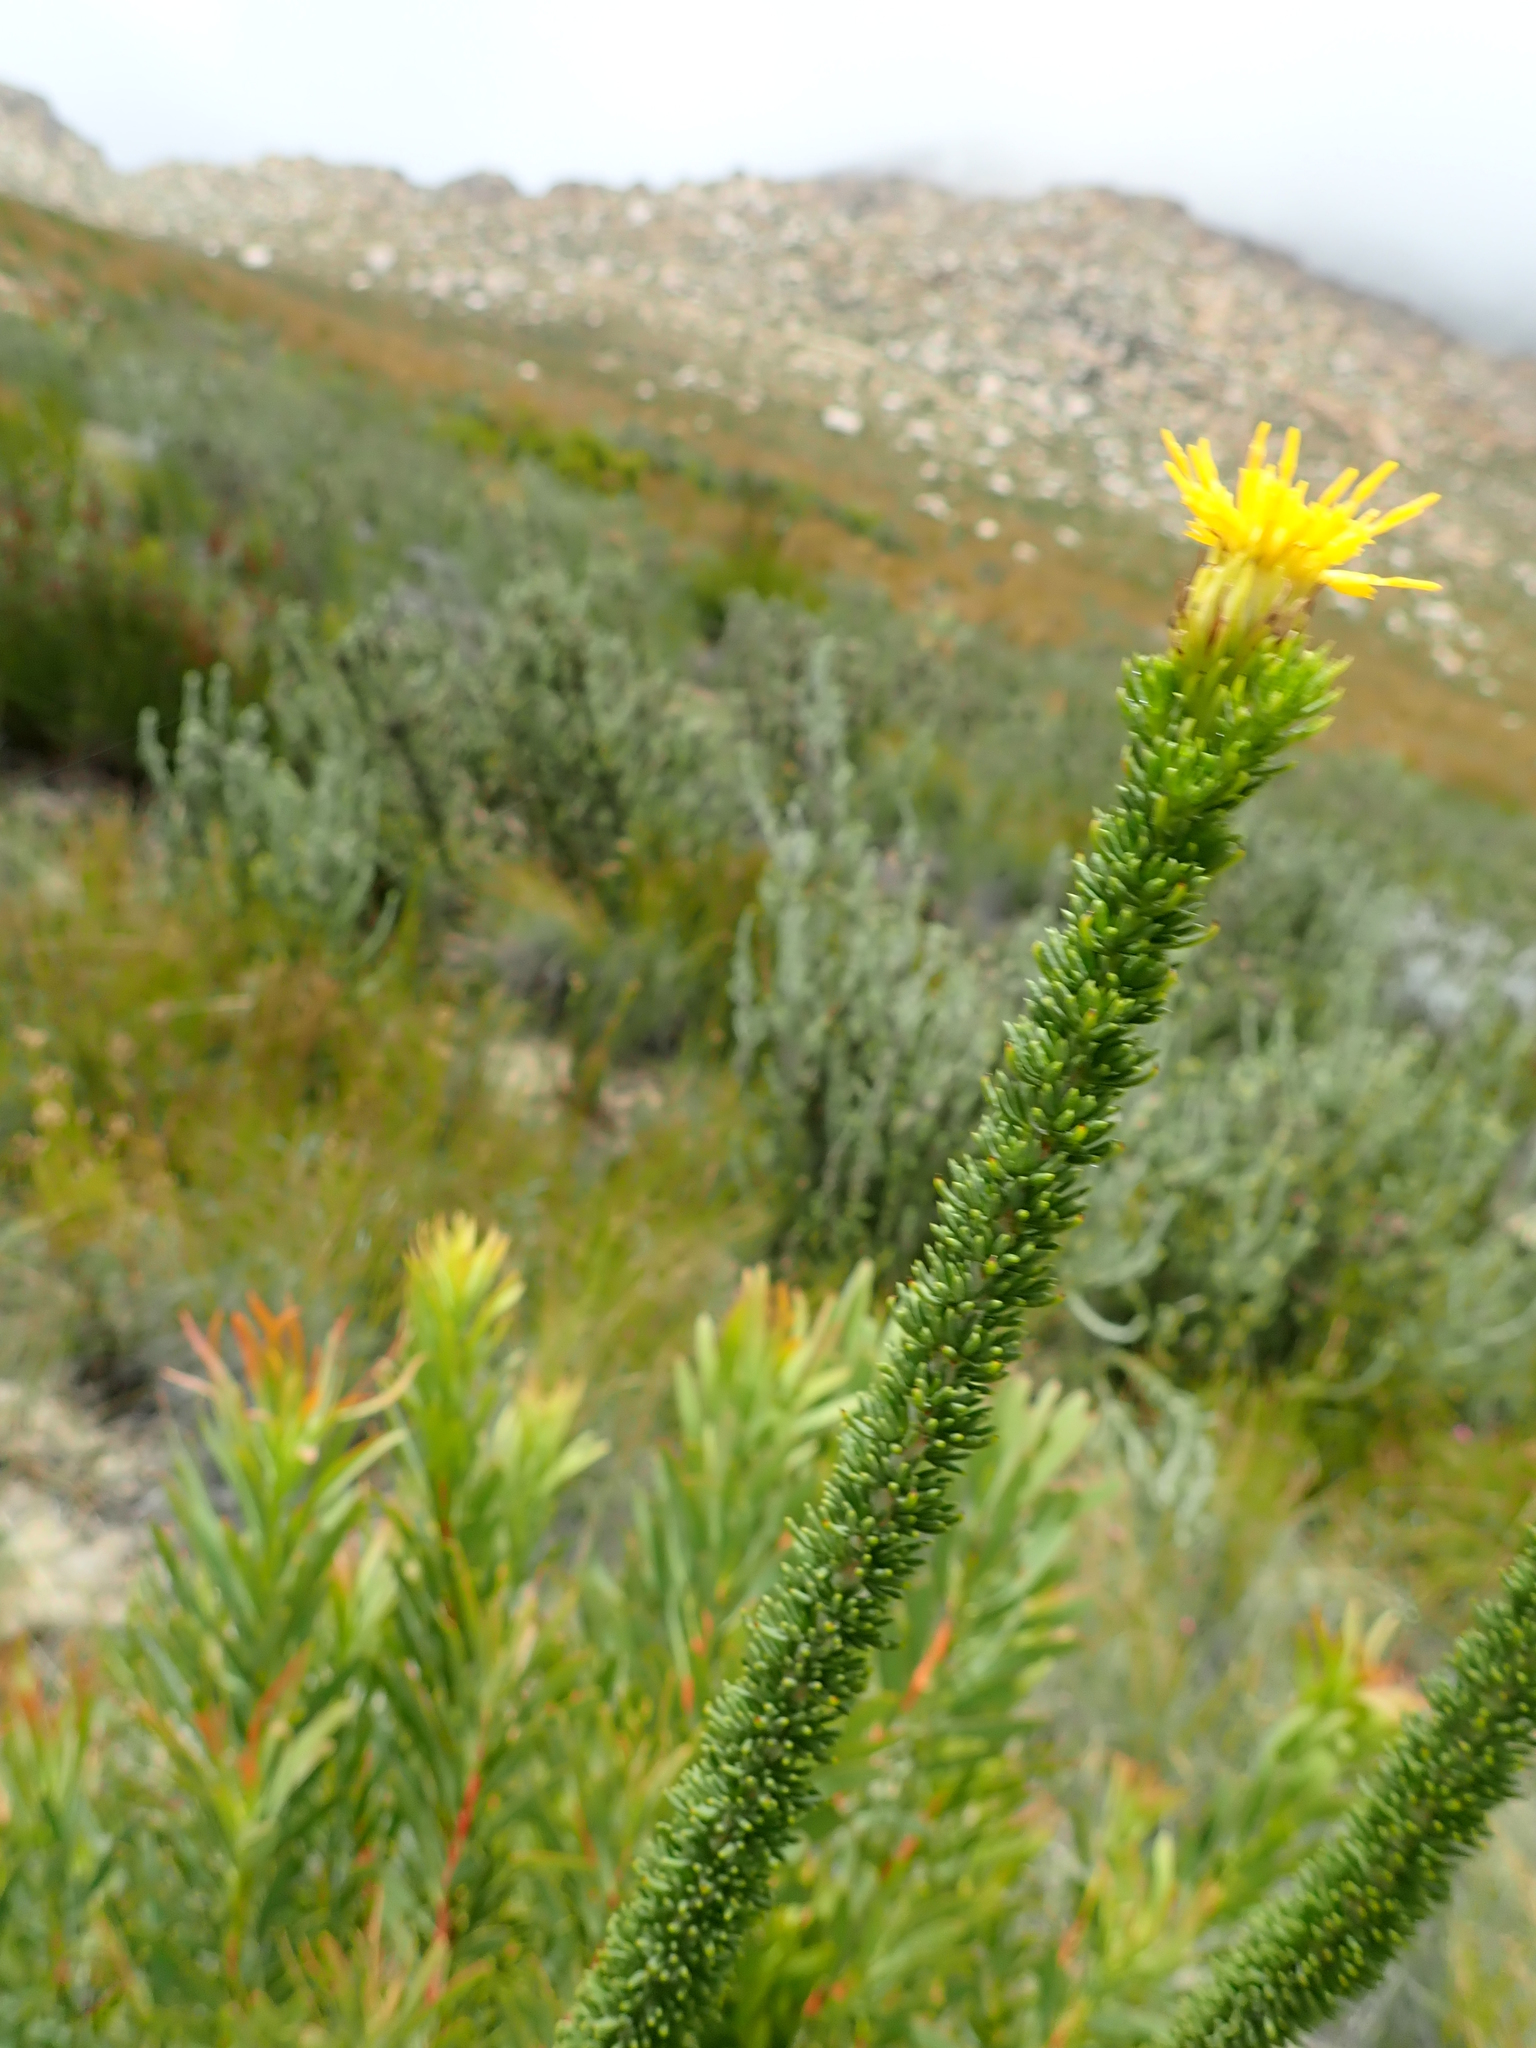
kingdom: Plantae
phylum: Tracheophyta
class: Magnoliopsida
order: Asterales
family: Asteraceae
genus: Pteronia
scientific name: Pteronia camphorata
